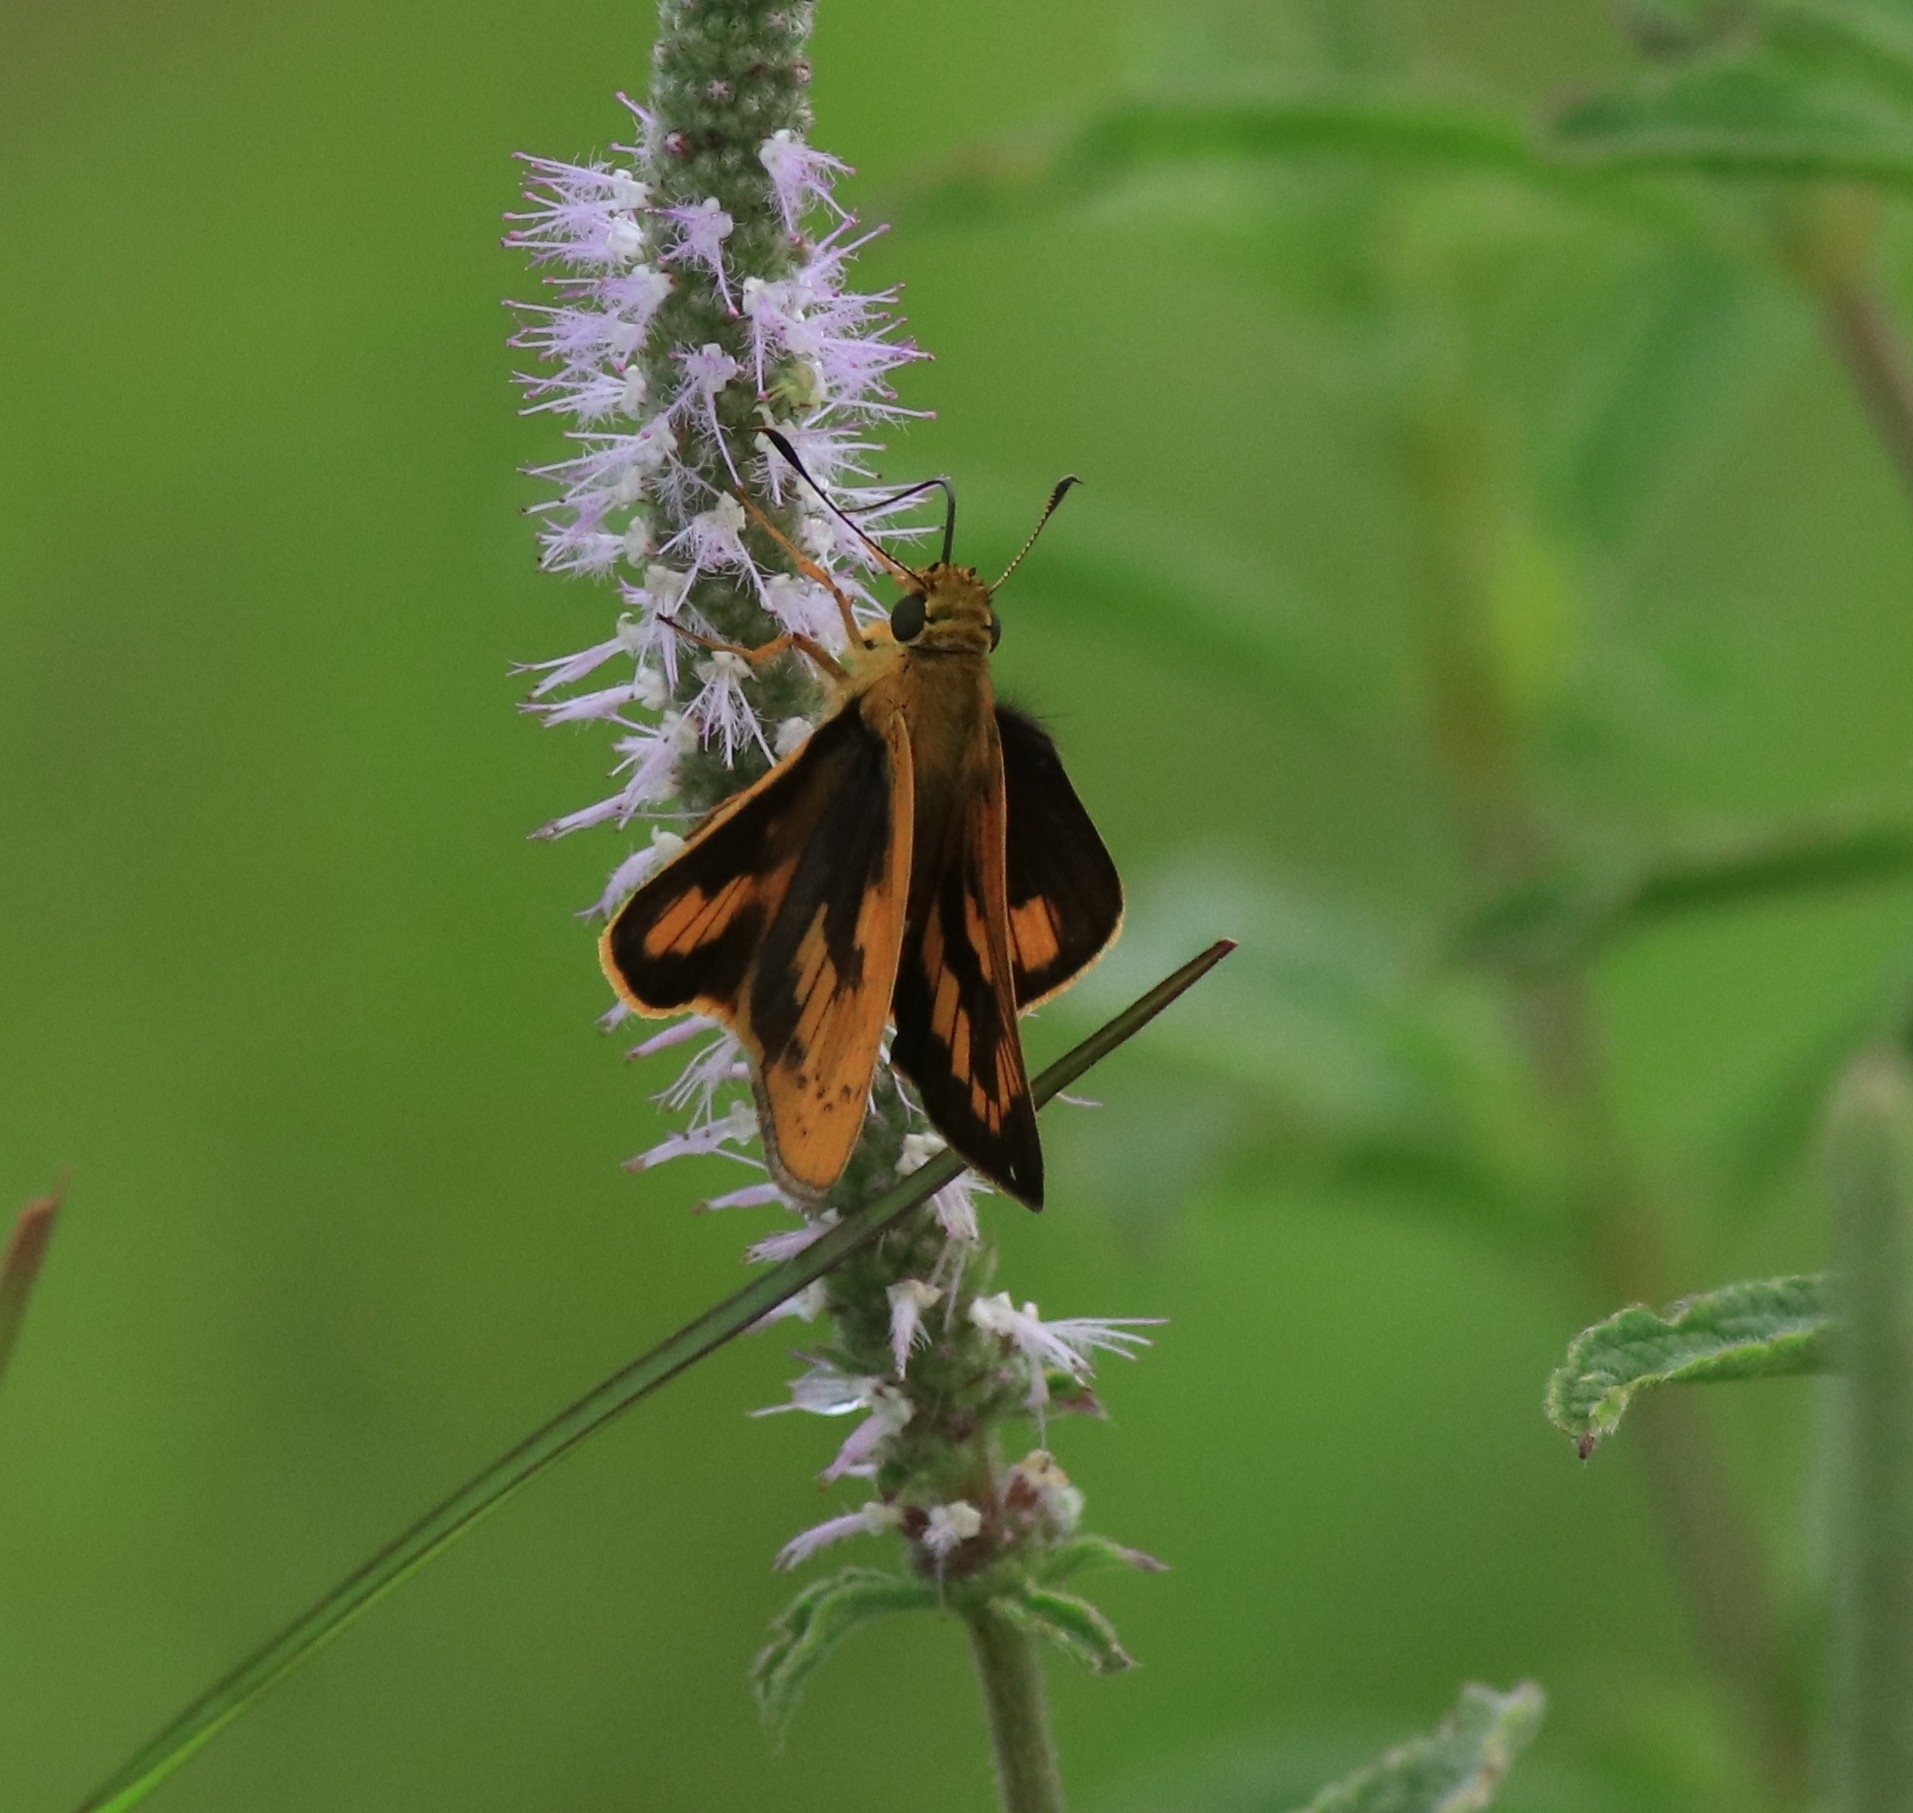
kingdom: Animalia
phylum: Arthropoda
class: Insecta
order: Lepidoptera
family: Hesperiidae
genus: Telicota
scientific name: Telicota bambusae
